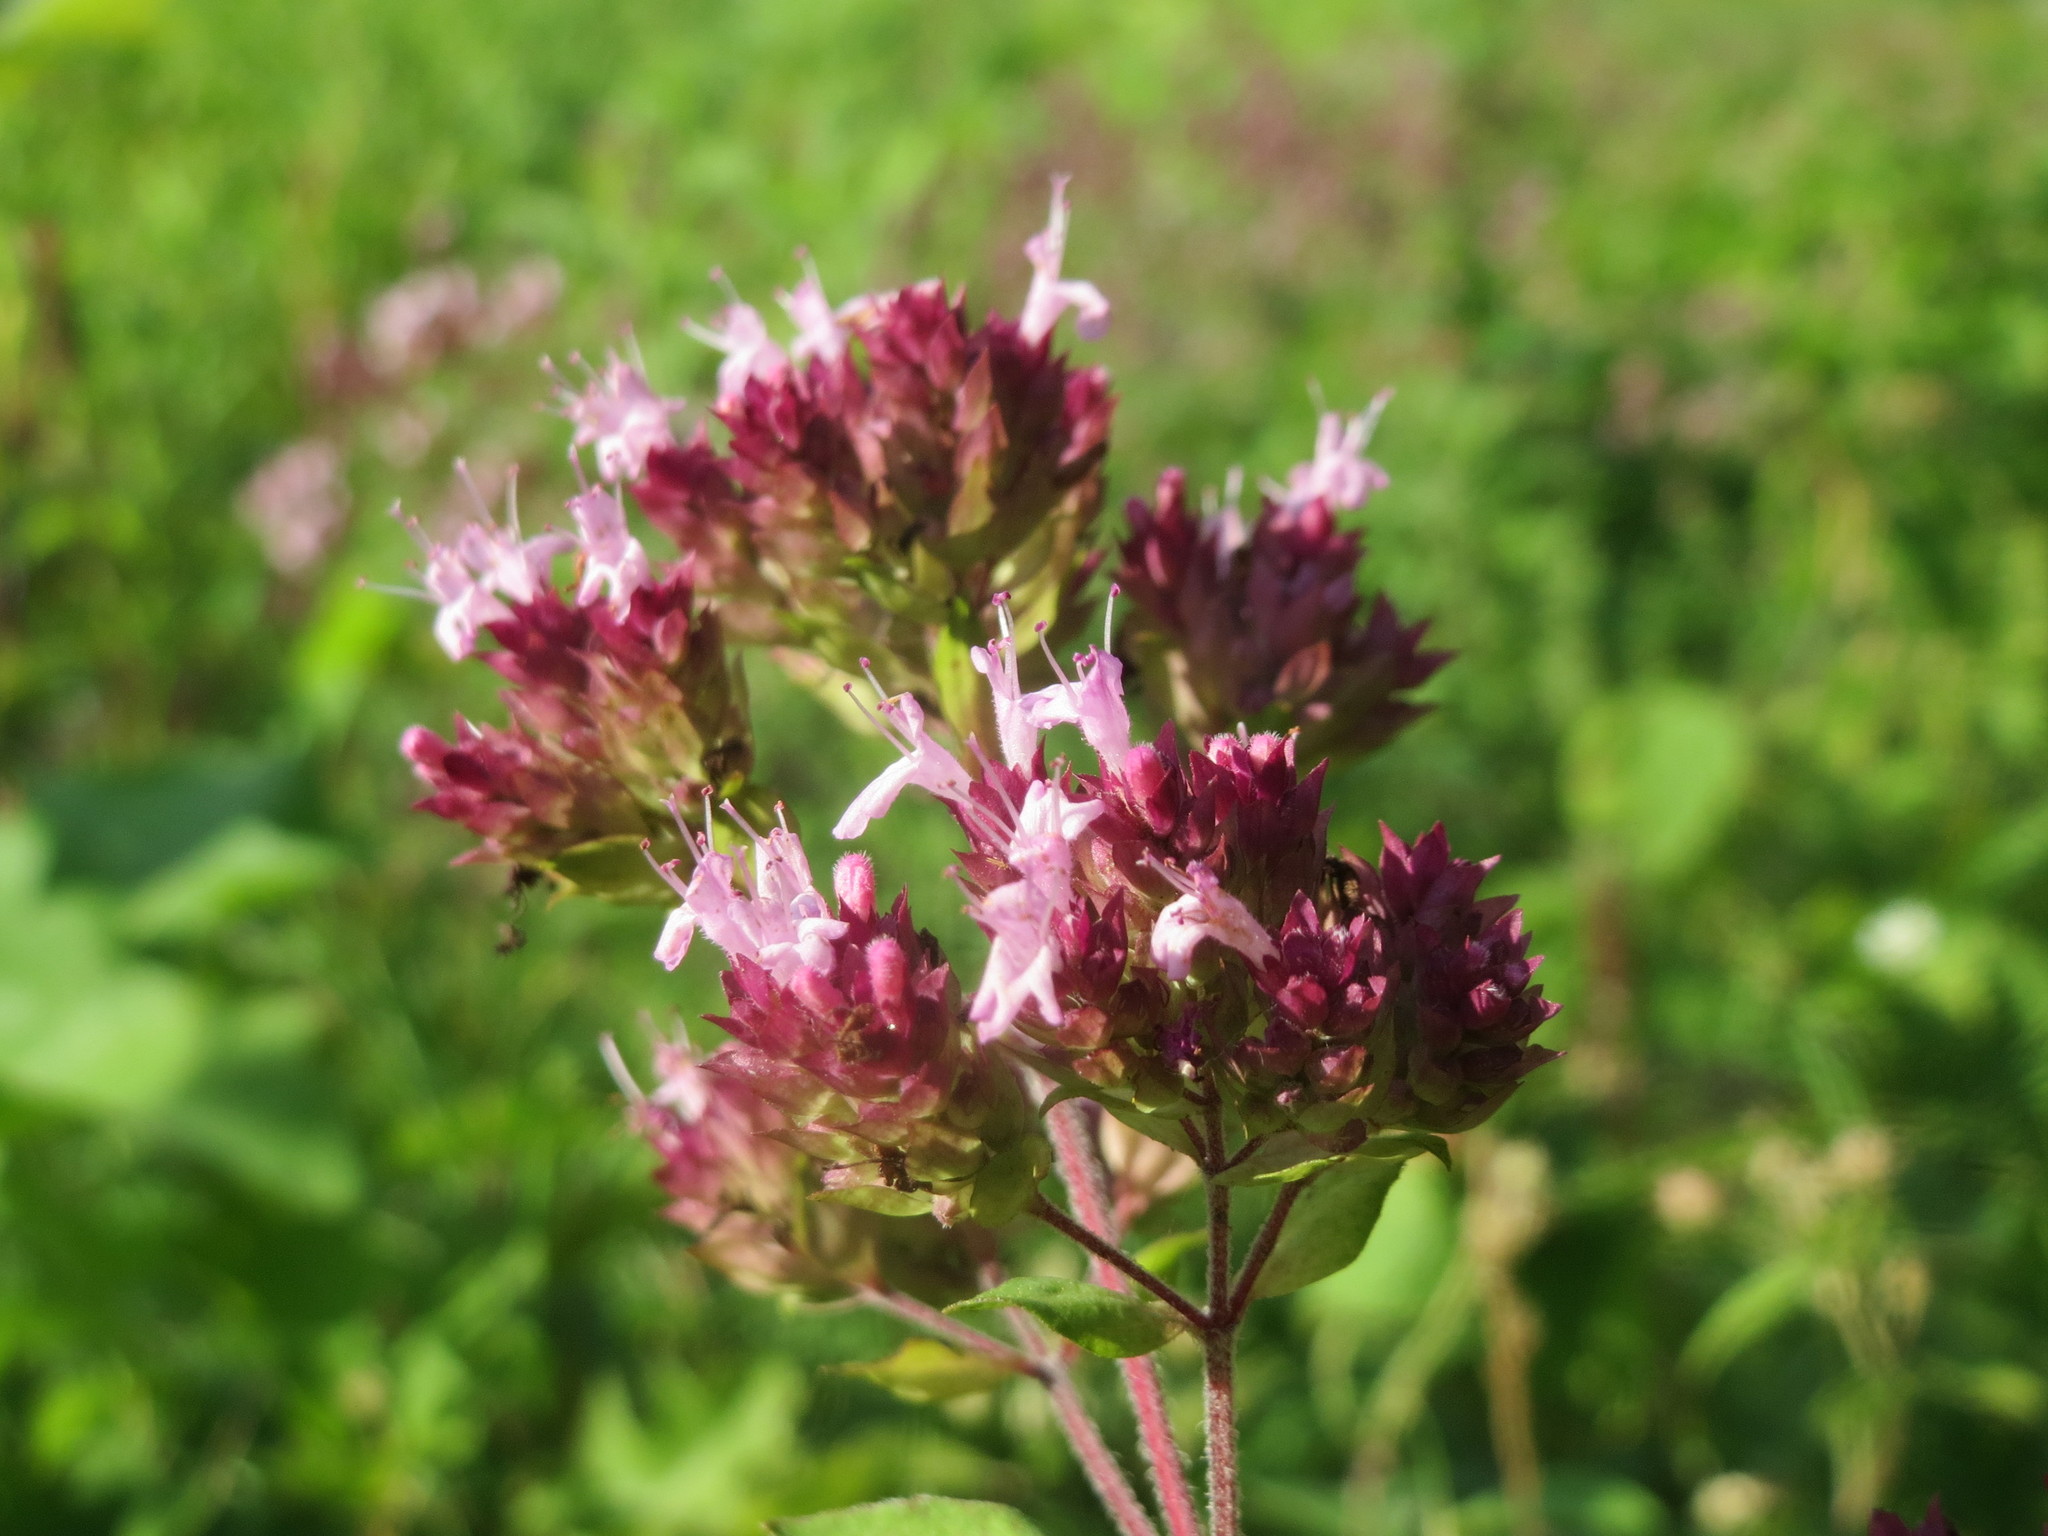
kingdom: Plantae
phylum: Tracheophyta
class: Magnoliopsida
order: Lamiales
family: Lamiaceae
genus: Origanum
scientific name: Origanum vulgare
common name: Wild marjoram
